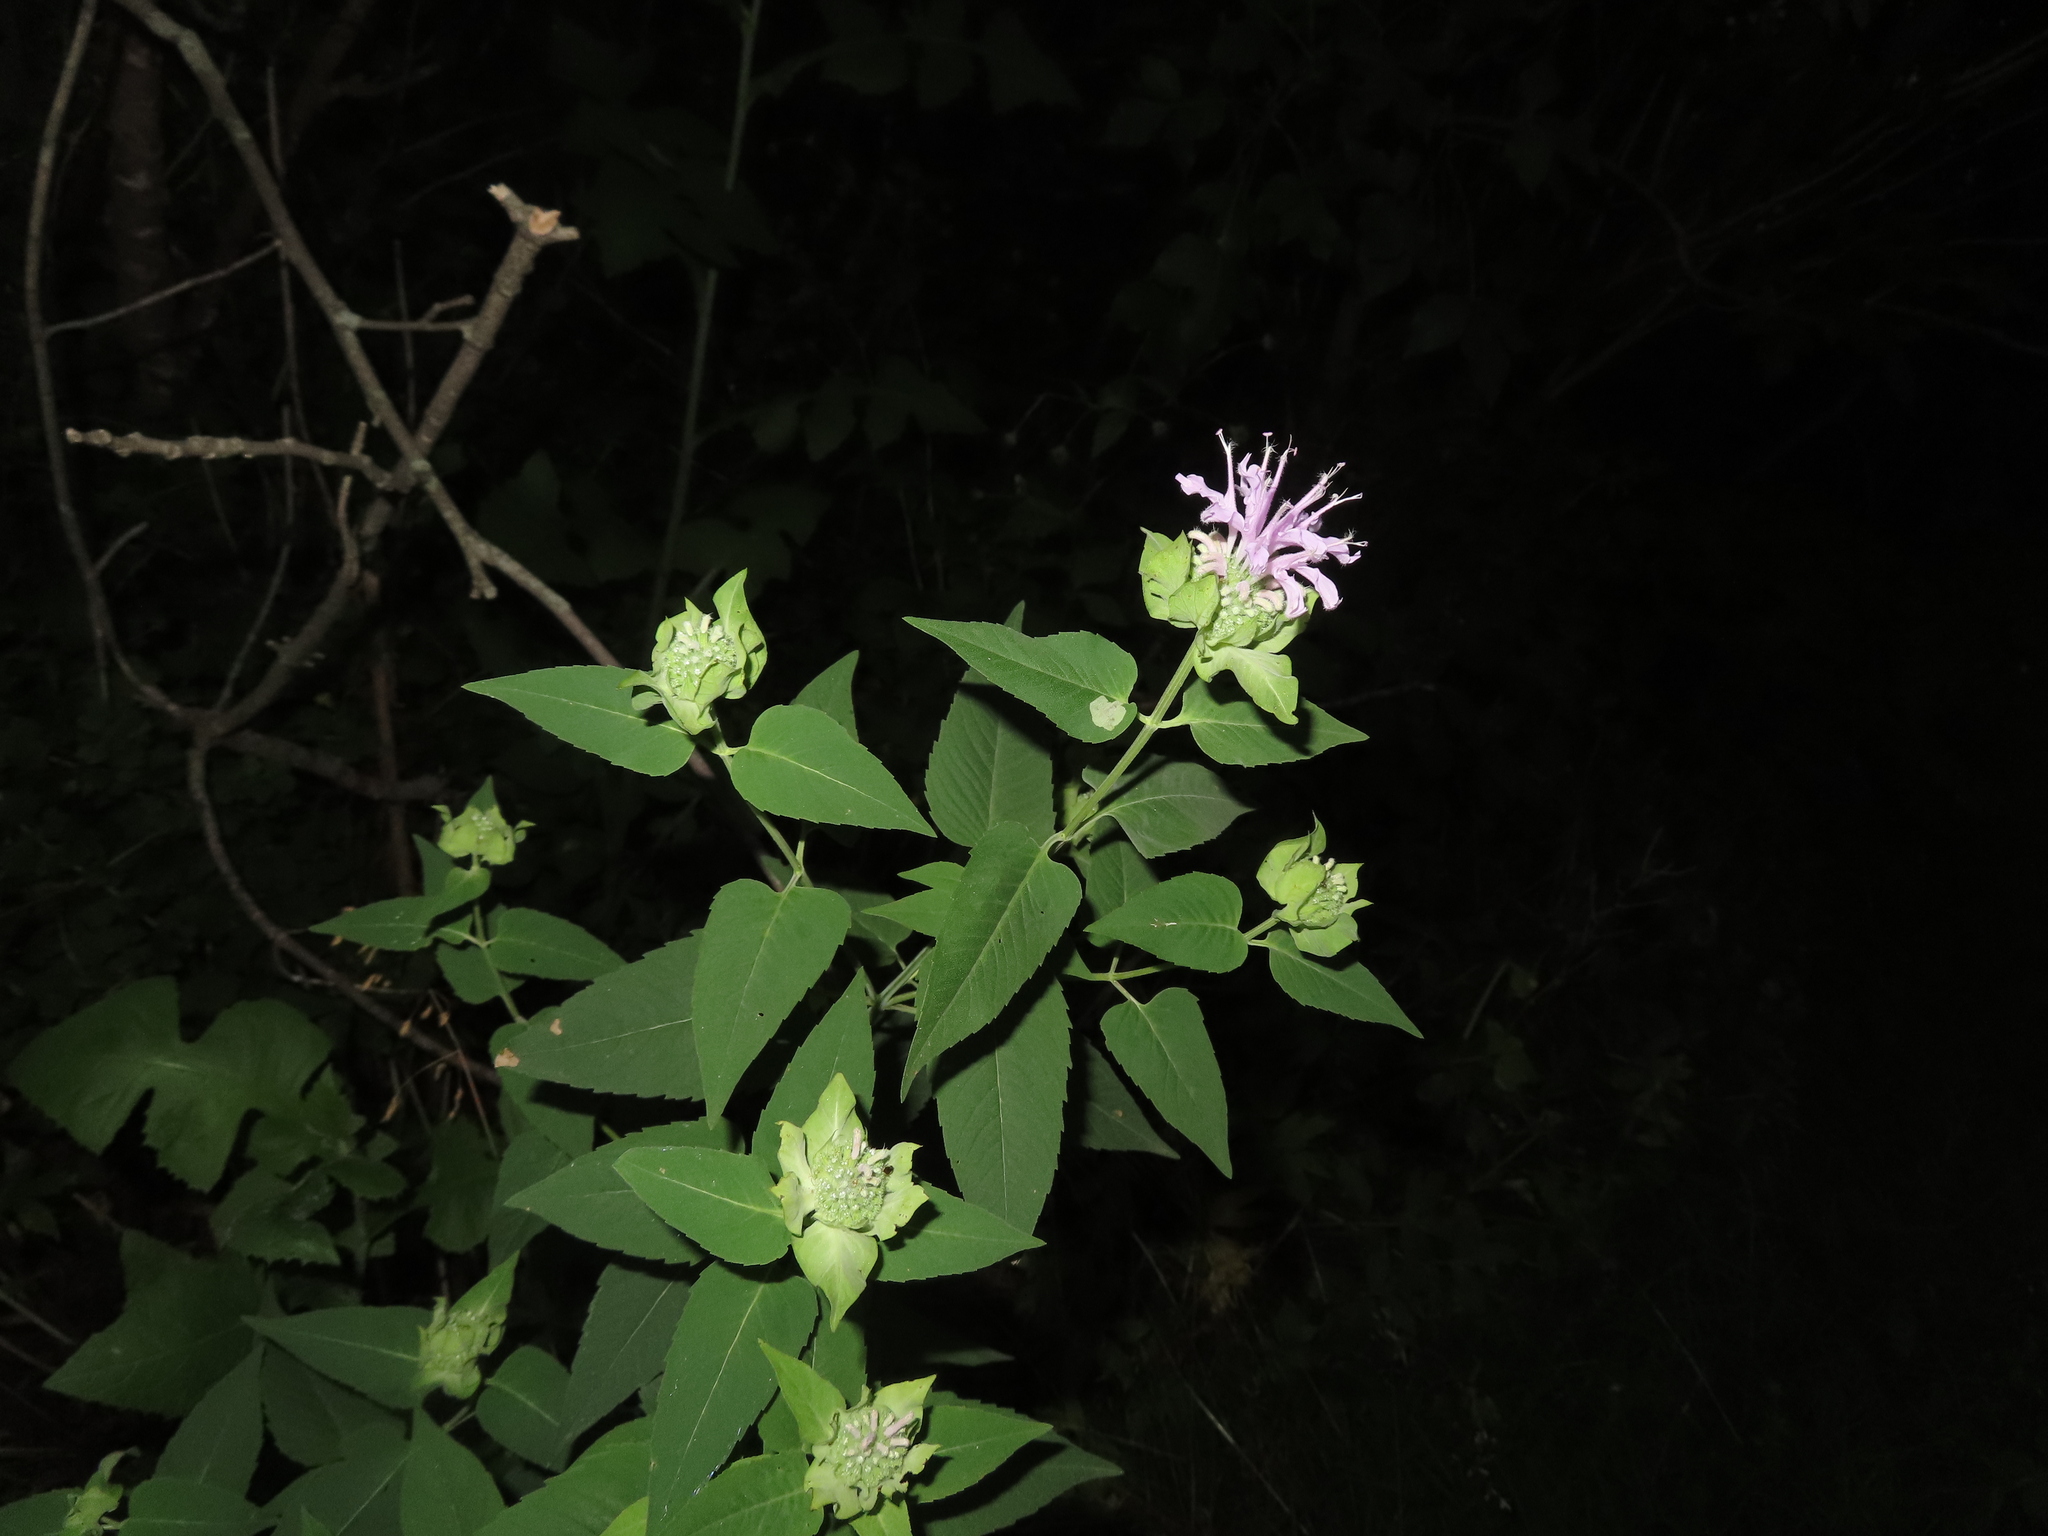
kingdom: Plantae
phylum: Tracheophyta
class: Magnoliopsida
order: Lamiales
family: Lamiaceae
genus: Monarda
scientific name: Monarda fistulosa
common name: Purple beebalm
